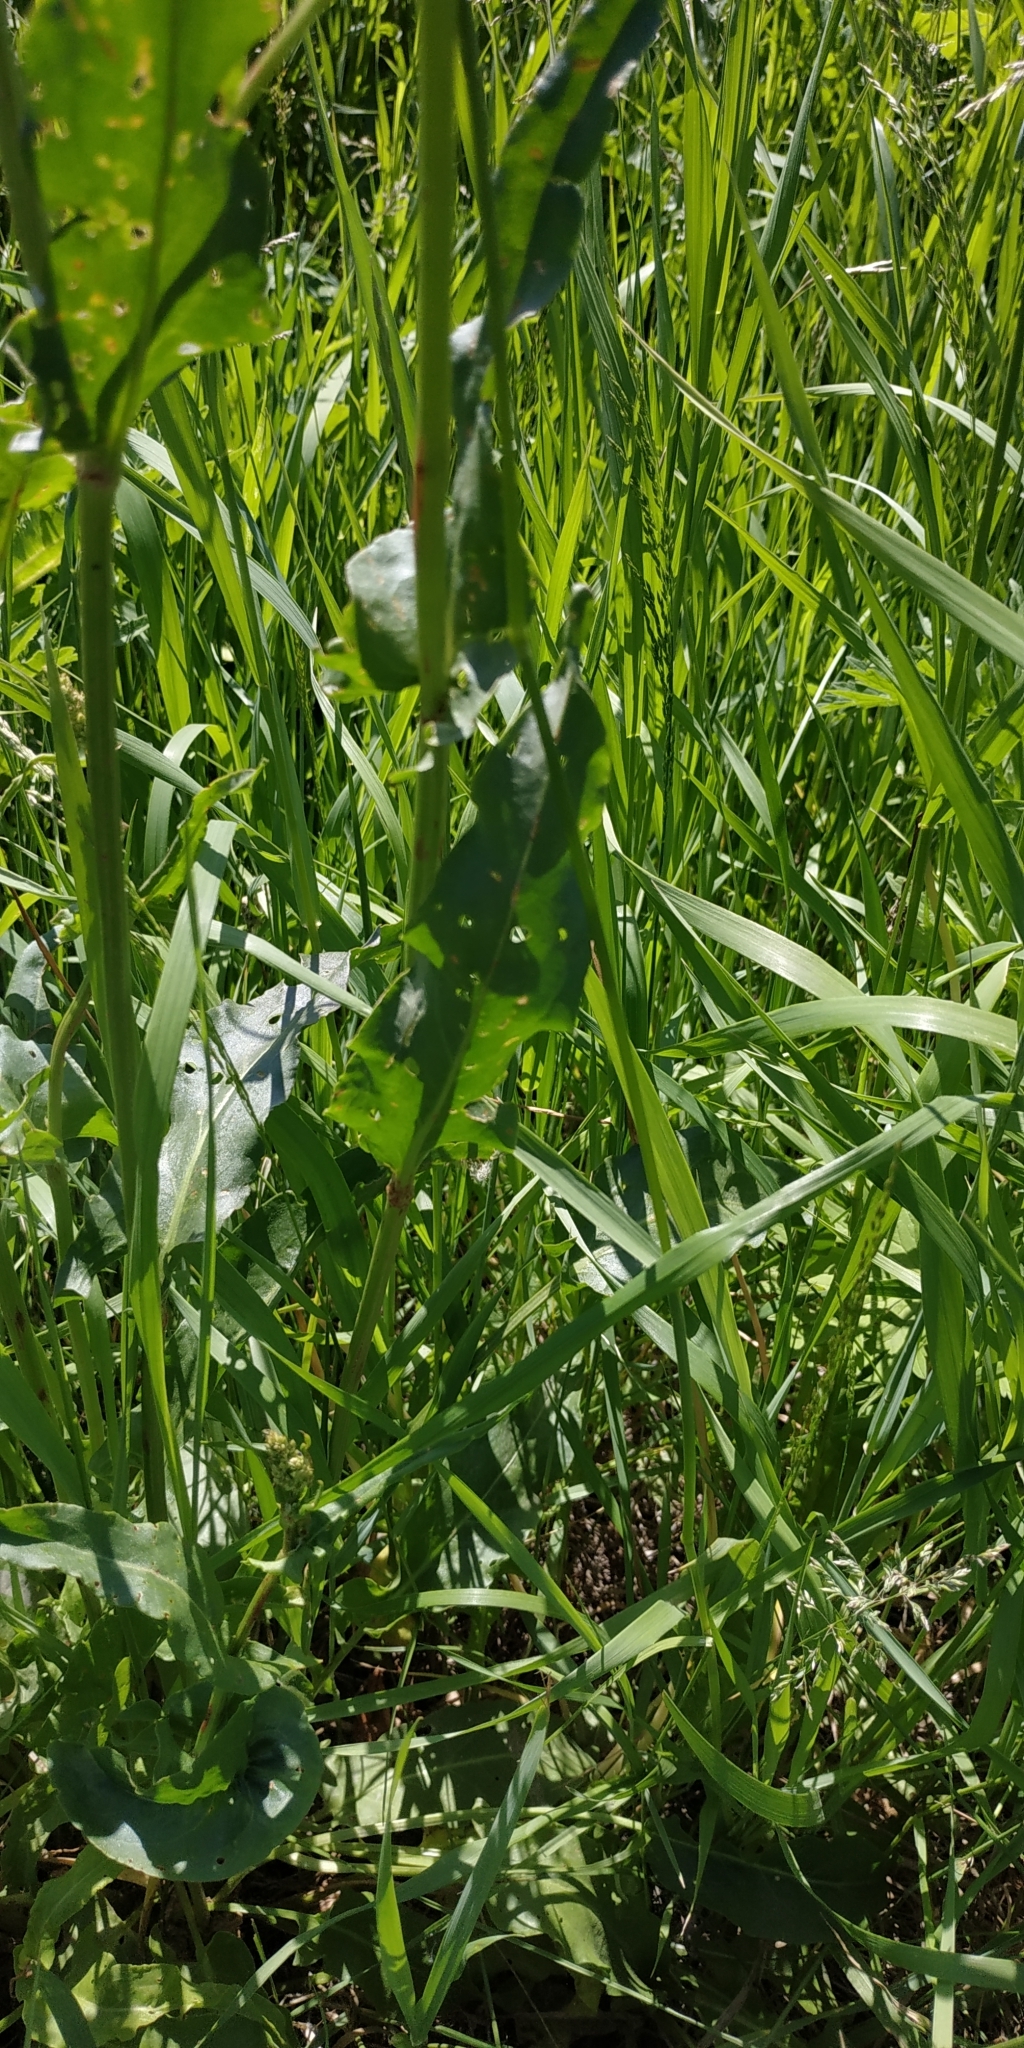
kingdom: Plantae
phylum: Tracheophyta
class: Magnoliopsida
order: Caryophyllales
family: Polygonaceae
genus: Rumex
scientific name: Rumex acetosella
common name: Common sheep sorrel
